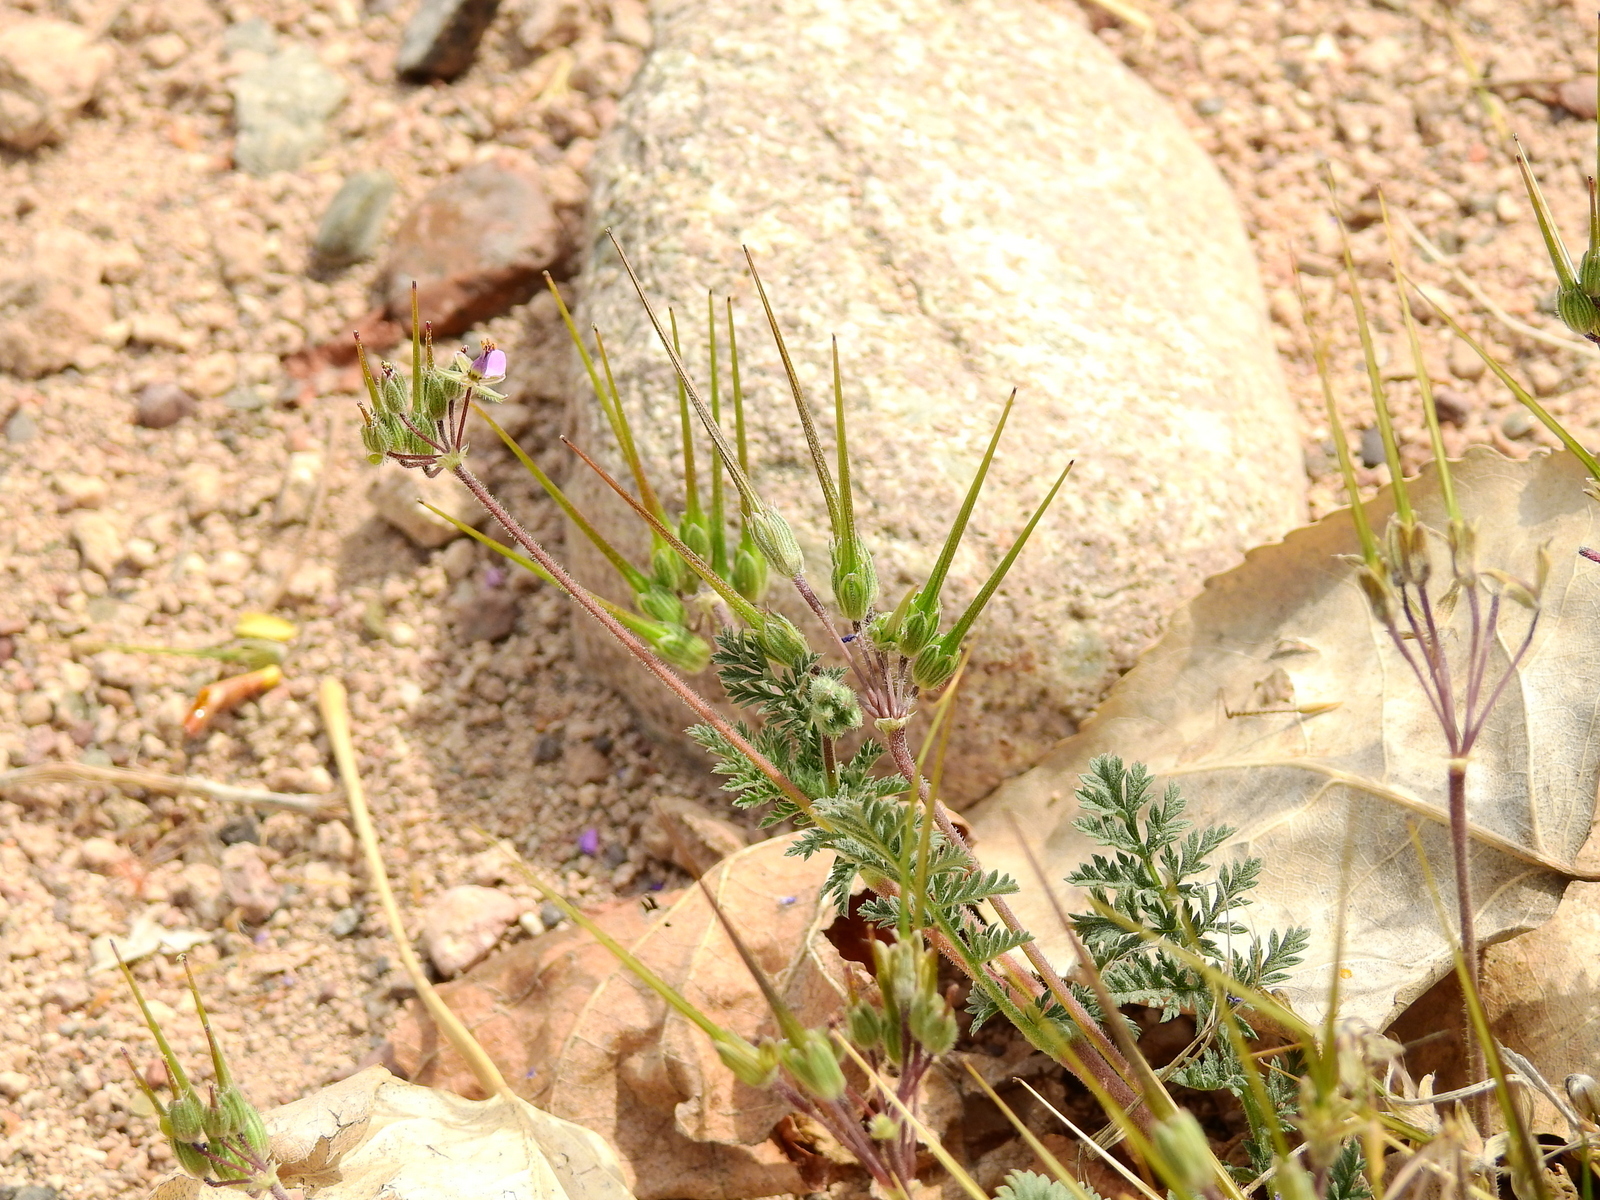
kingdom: Plantae
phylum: Tracheophyta
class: Magnoliopsida
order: Geraniales
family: Geraniaceae
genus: Erodium
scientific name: Erodium cicutarium
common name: Common stork's-bill
